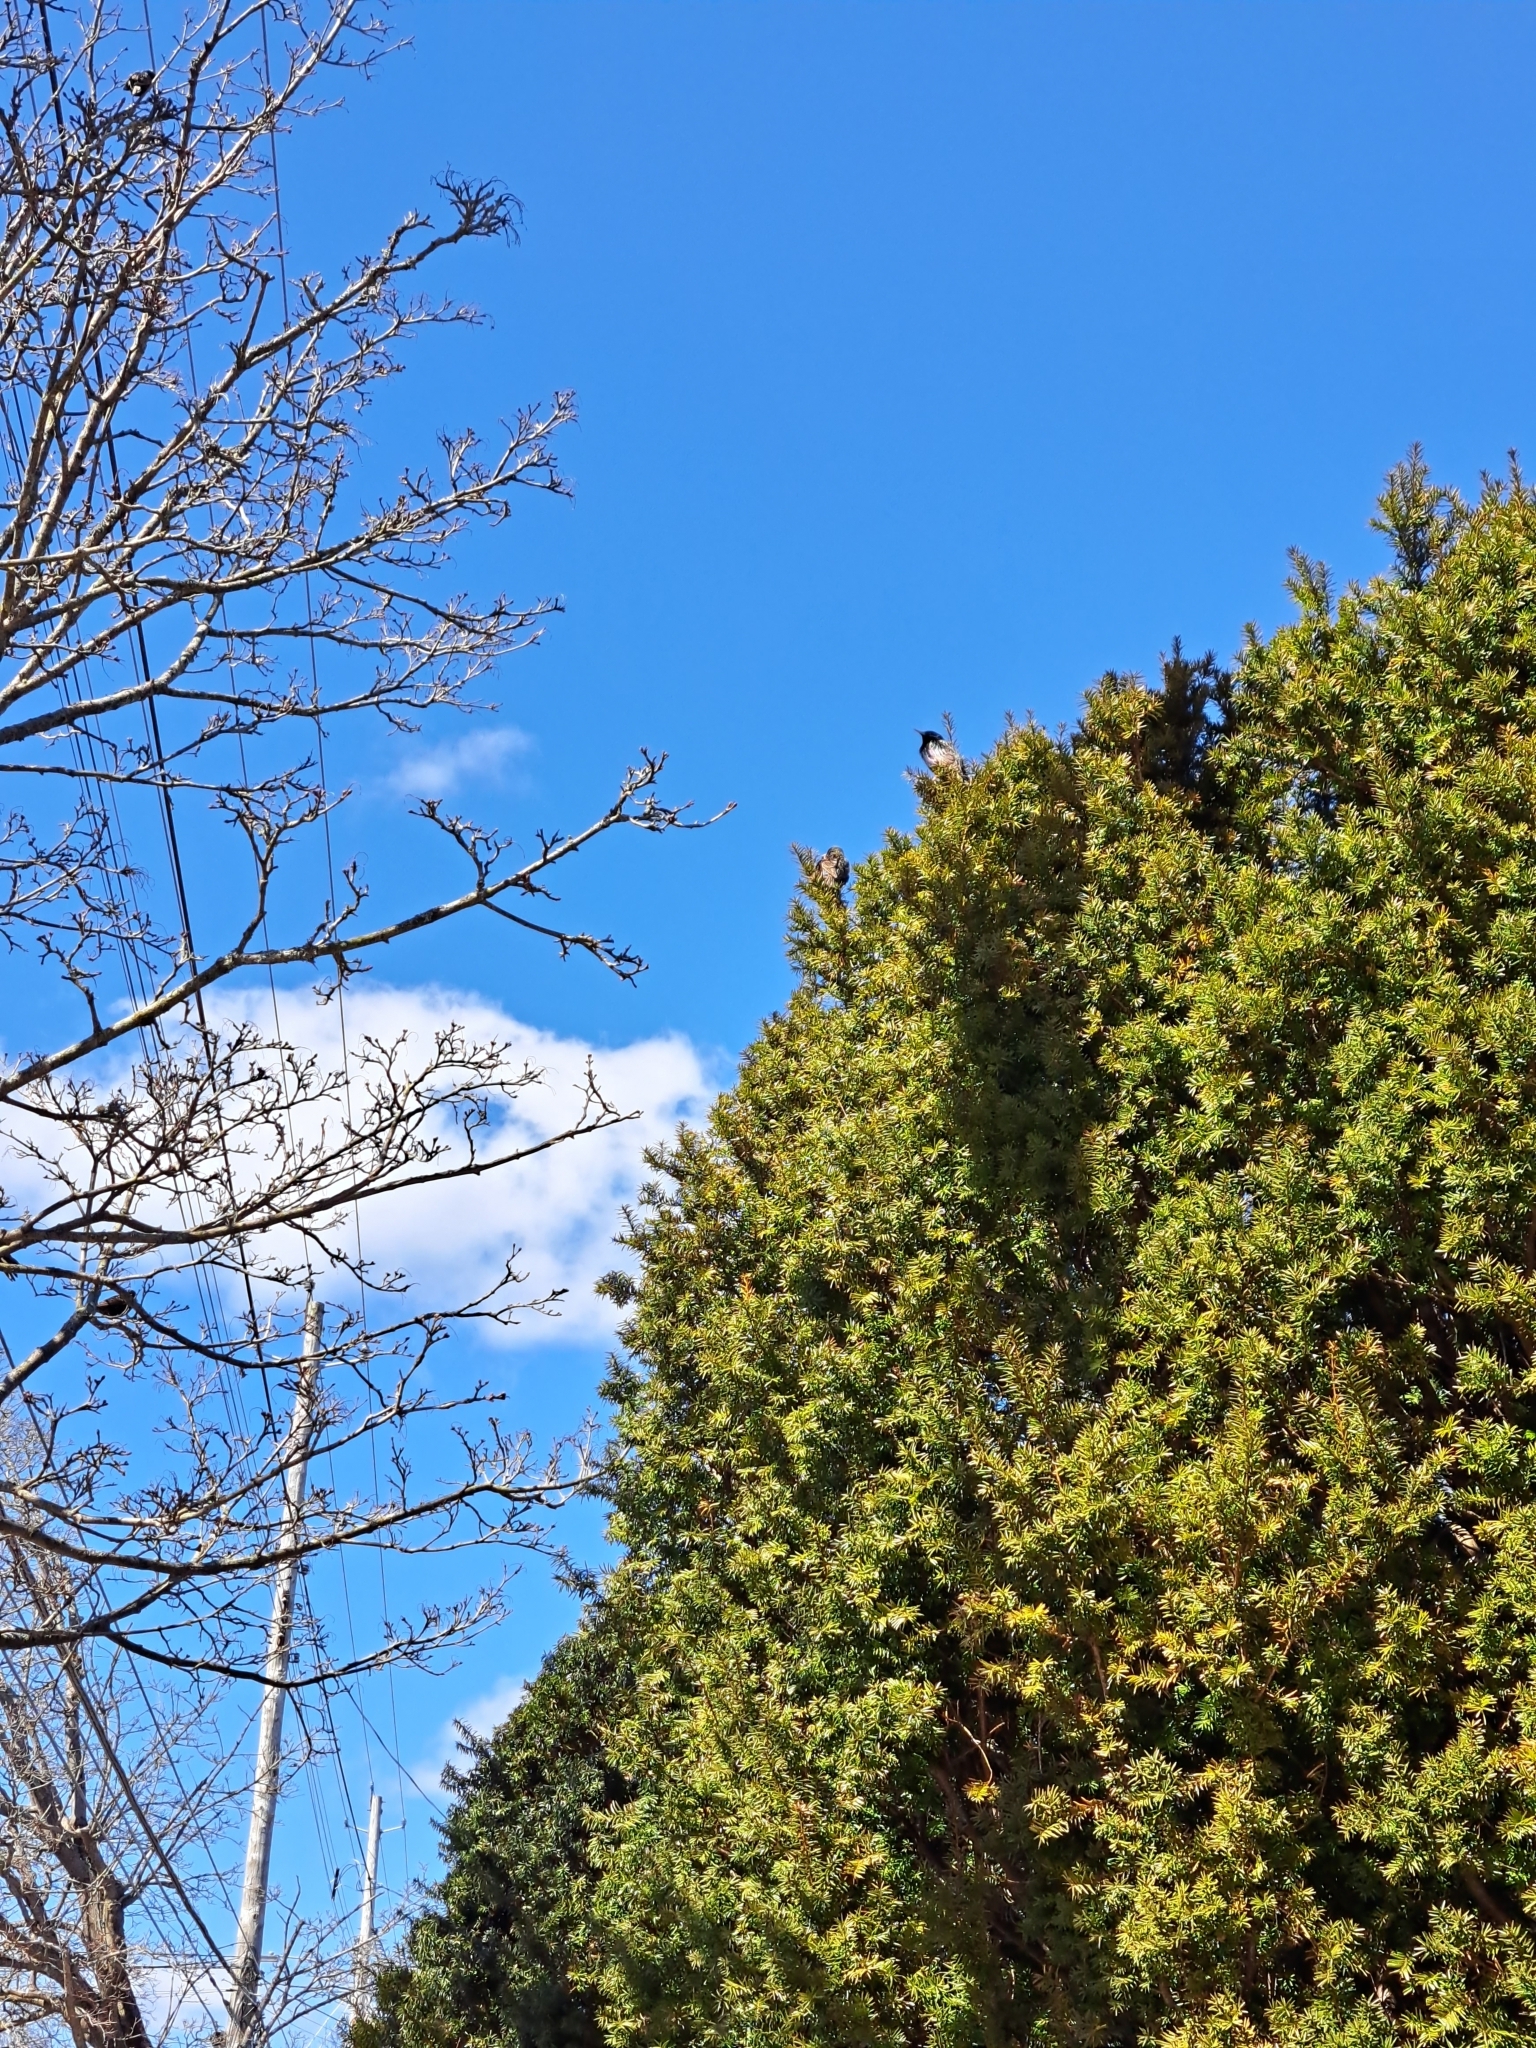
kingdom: Animalia
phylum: Chordata
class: Aves
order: Passeriformes
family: Sturnidae
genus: Sturnus
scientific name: Sturnus vulgaris
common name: Common starling
